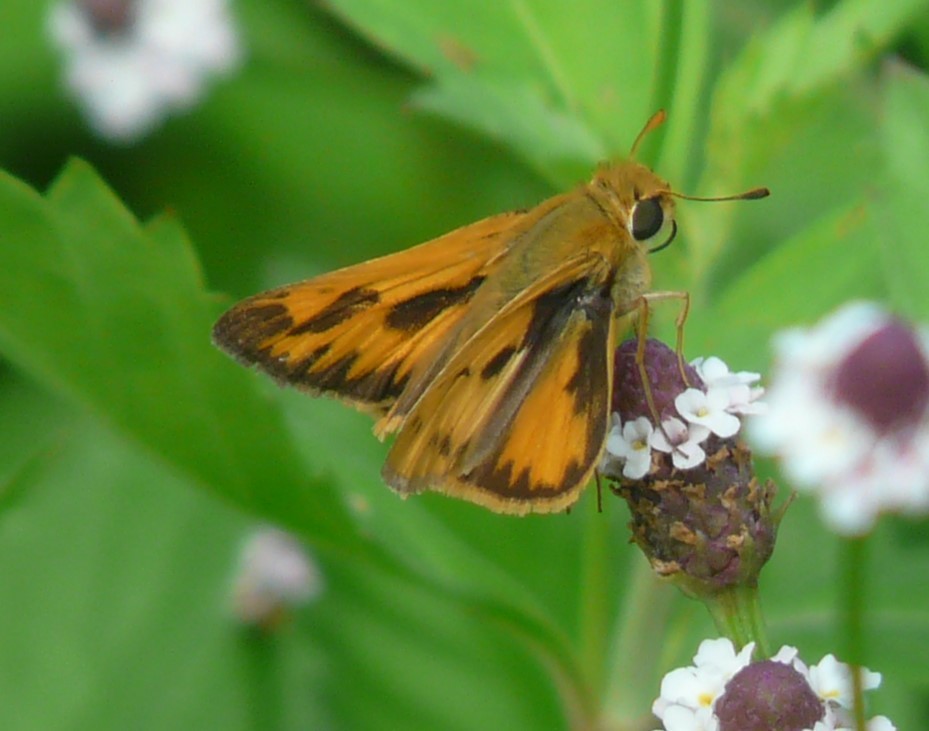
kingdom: Animalia
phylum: Arthropoda
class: Insecta
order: Lepidoptera
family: Hesperiidae
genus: Hylephila
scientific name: Hylephila phyleus
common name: Fiery skipper
